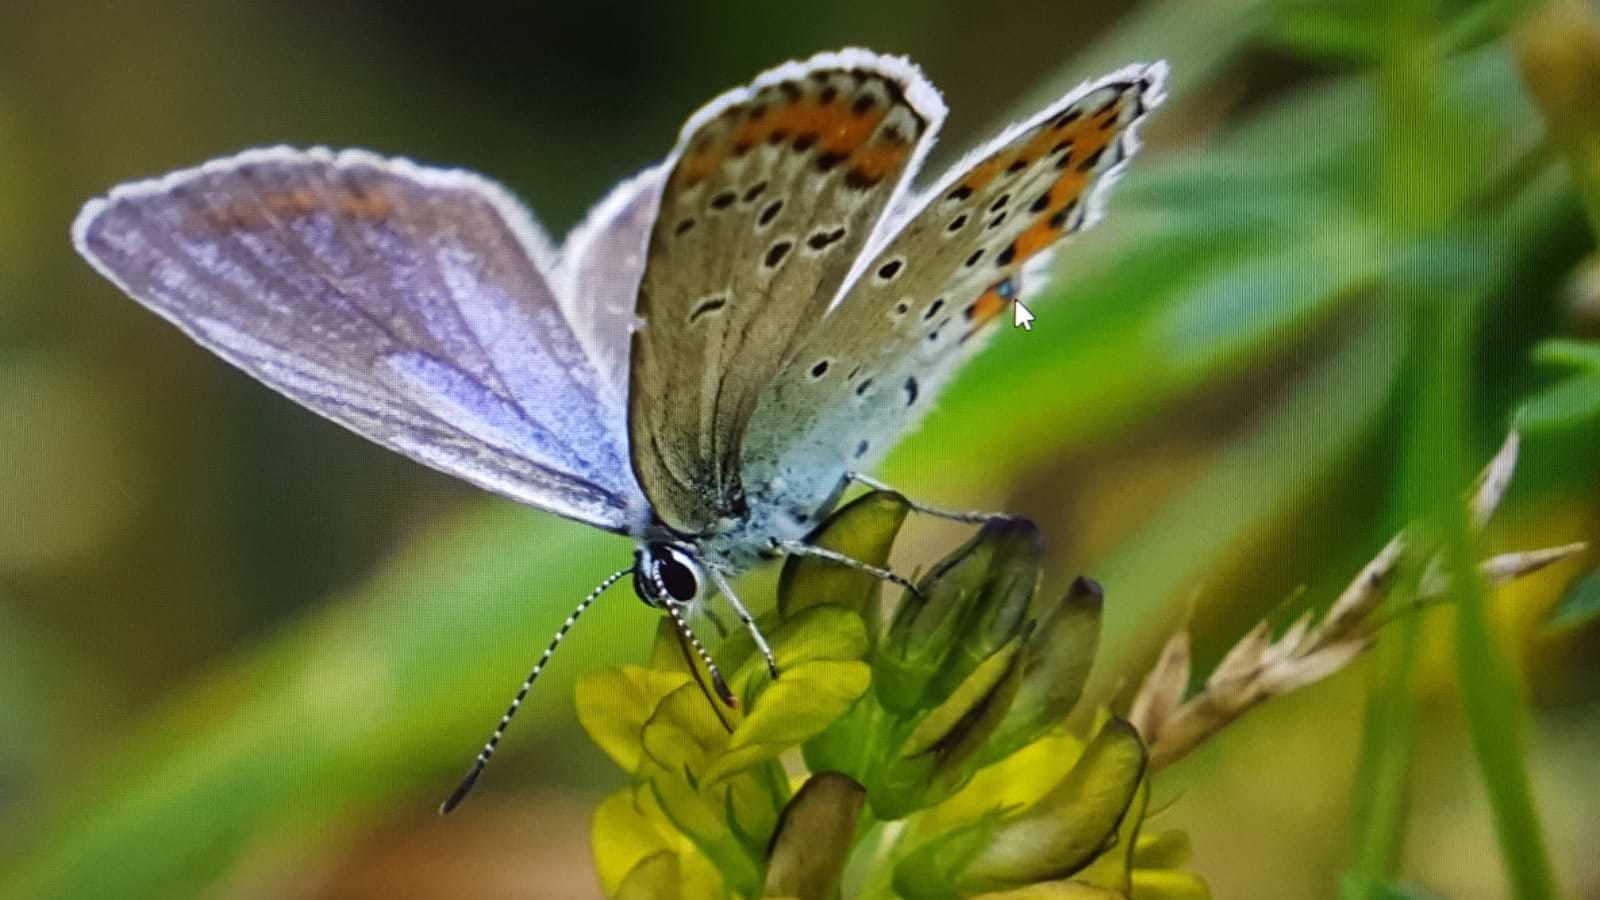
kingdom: Animalia
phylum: Arthropoda
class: Insecta
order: Lepidoptera
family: Lycaenidae
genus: Plebejus
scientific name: Plebejus argyrognomon
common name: Reverdin's blue
